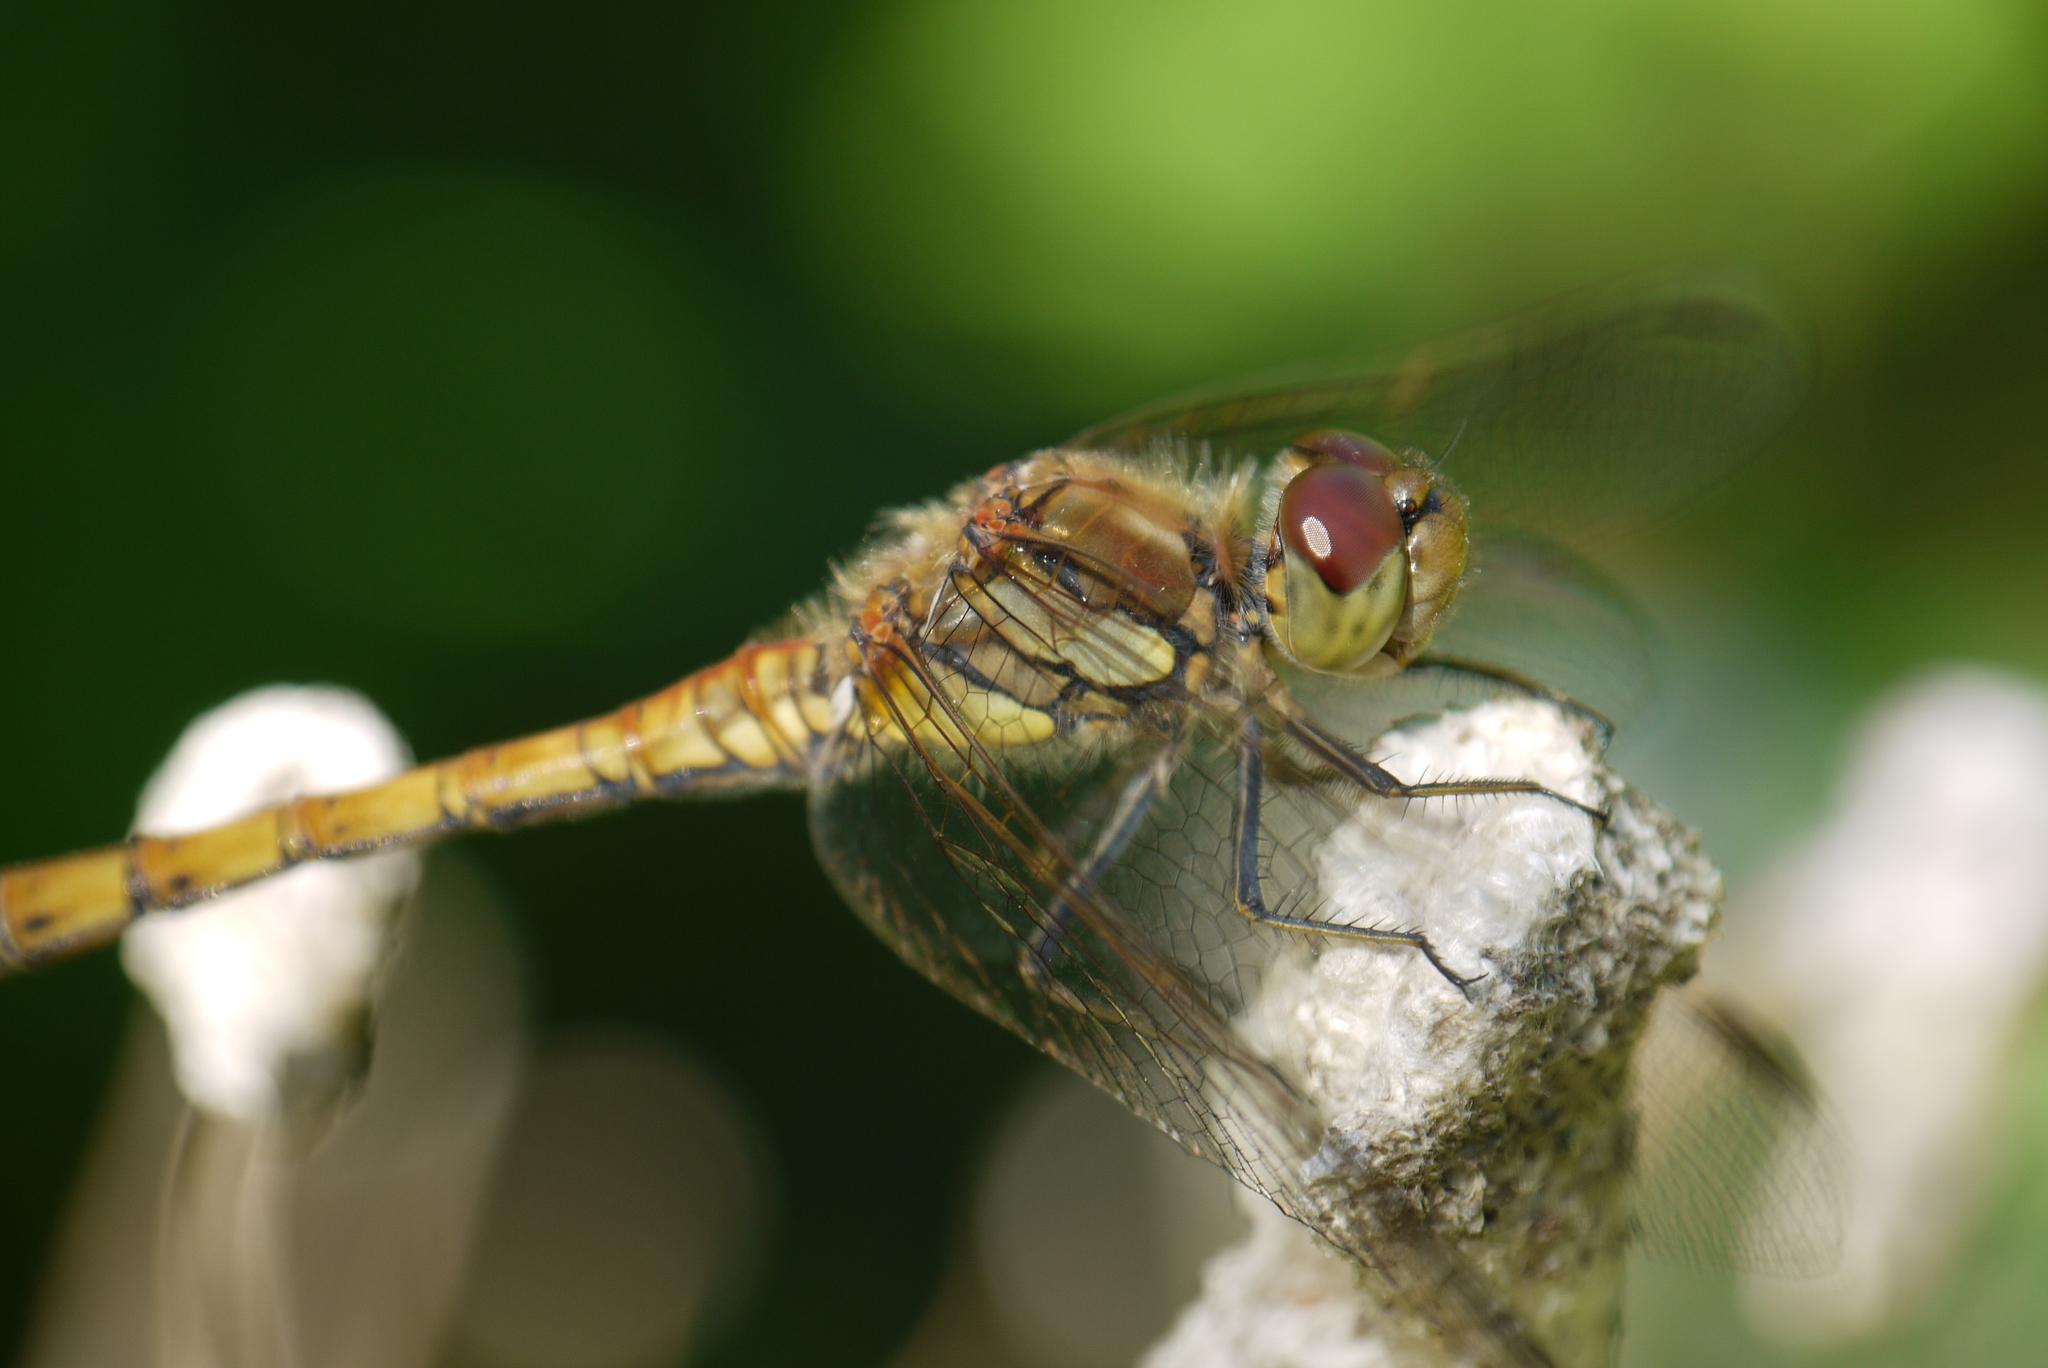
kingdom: Animalia
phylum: Arthropoda
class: Insecta
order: Odonata
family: Libellulidae
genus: Sympetrum
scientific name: Sympetrum striolatum
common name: Common darter
